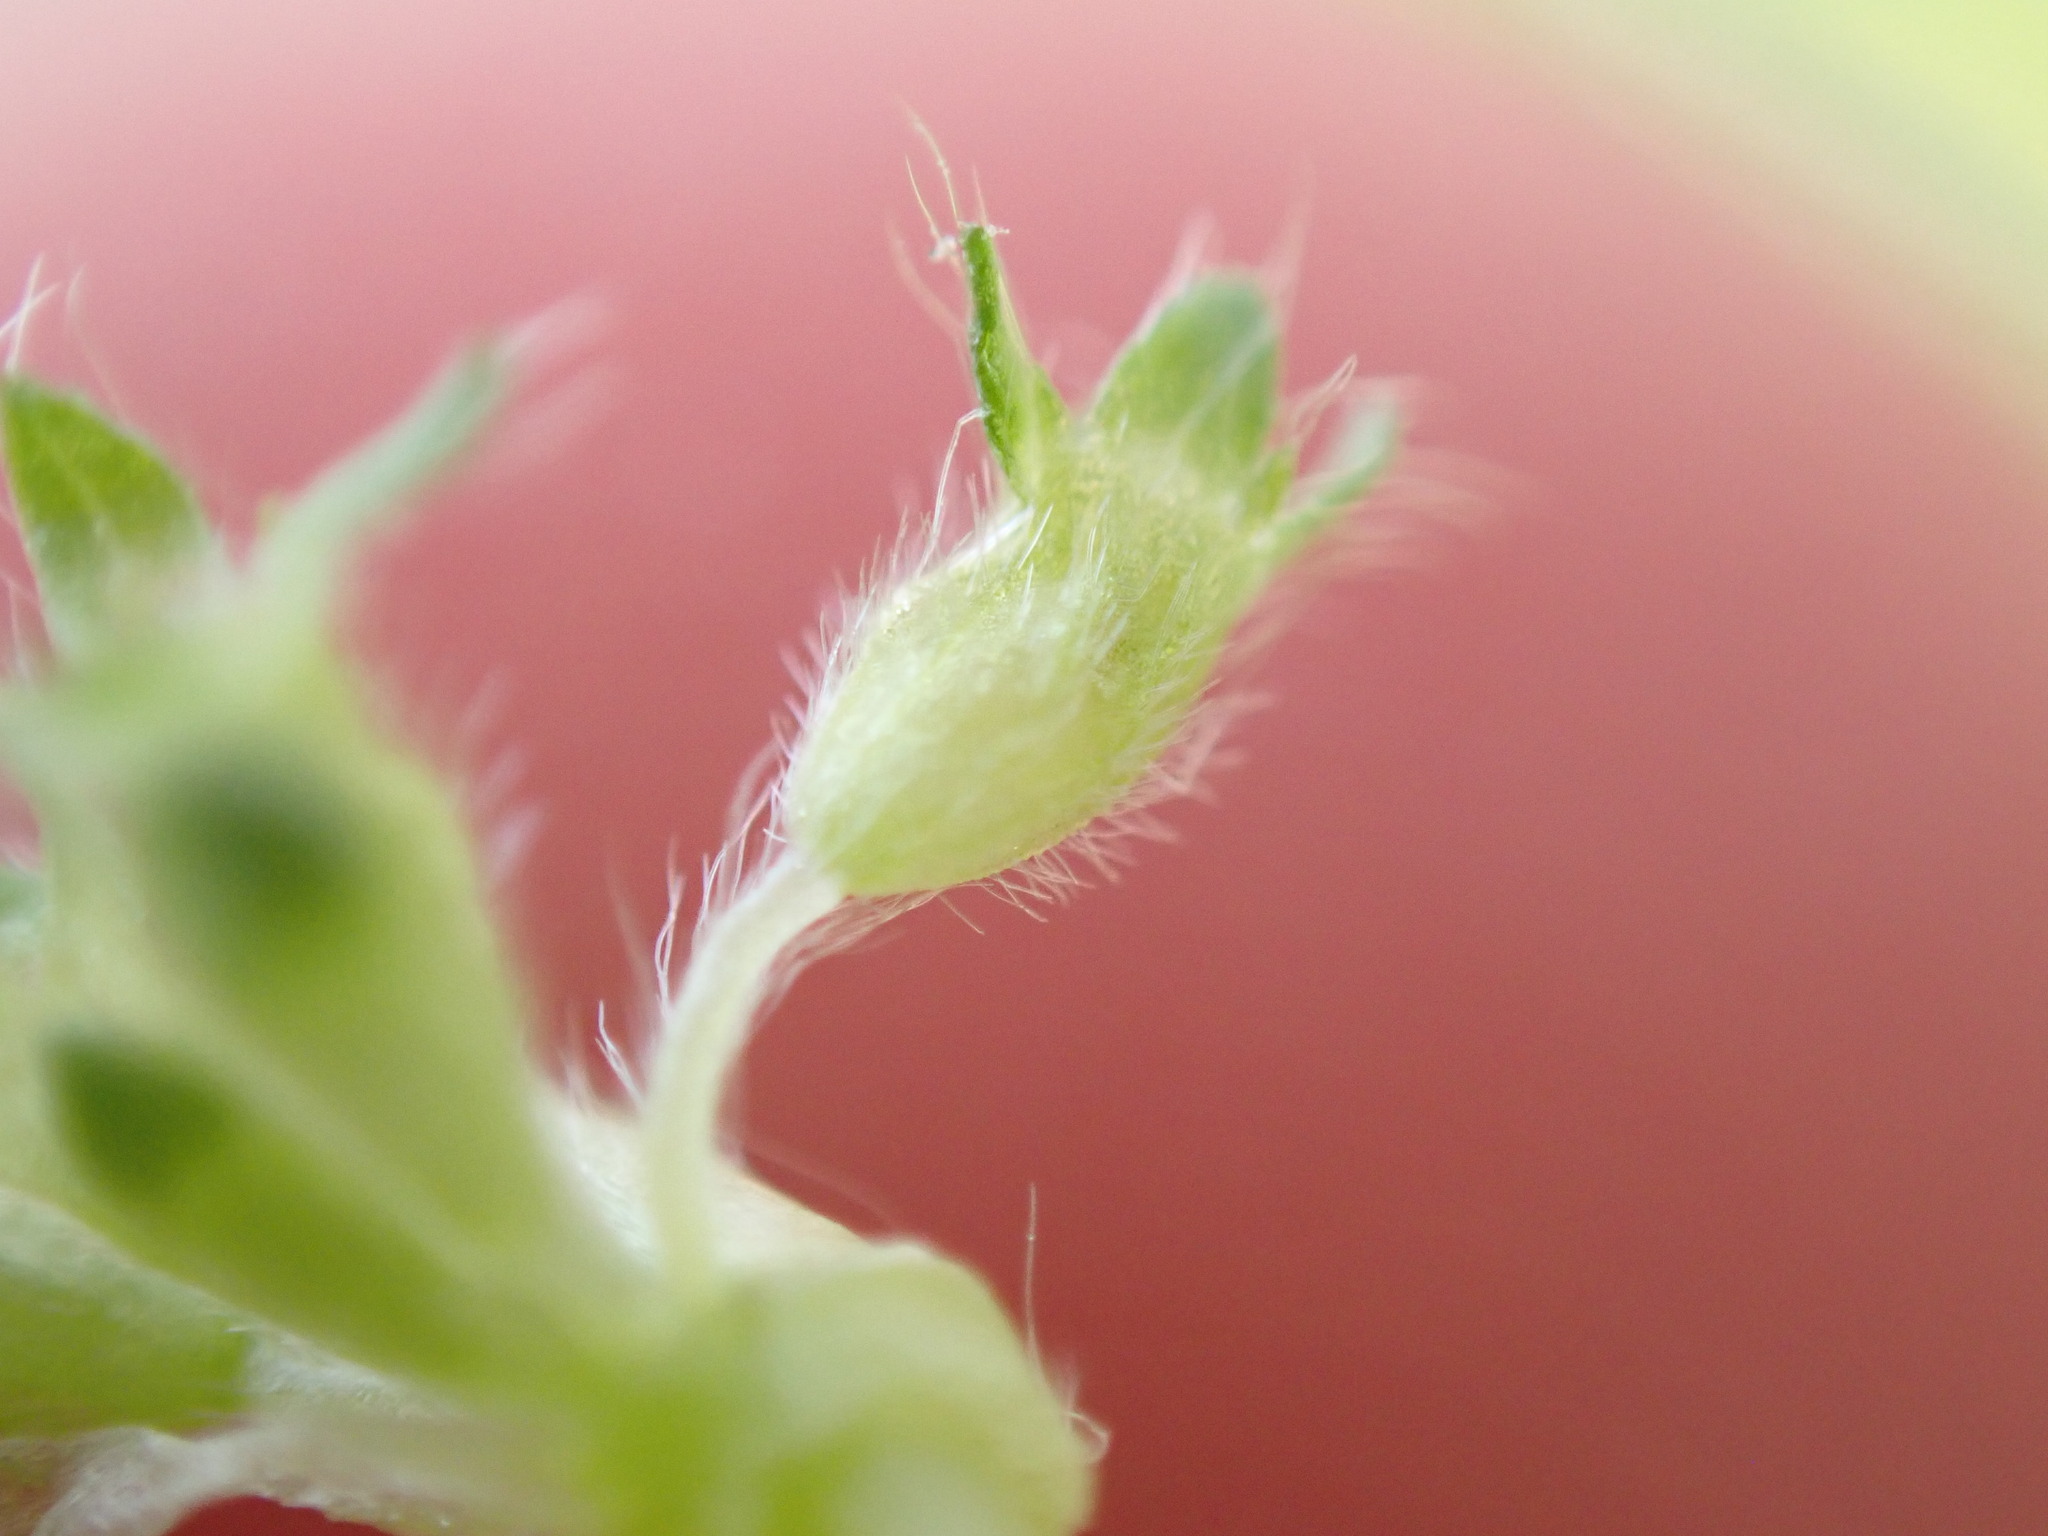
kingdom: Plantae
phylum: Tracheophyta
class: Magnoliopsida
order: Rosales
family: Rosaceae
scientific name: Rosaceae
